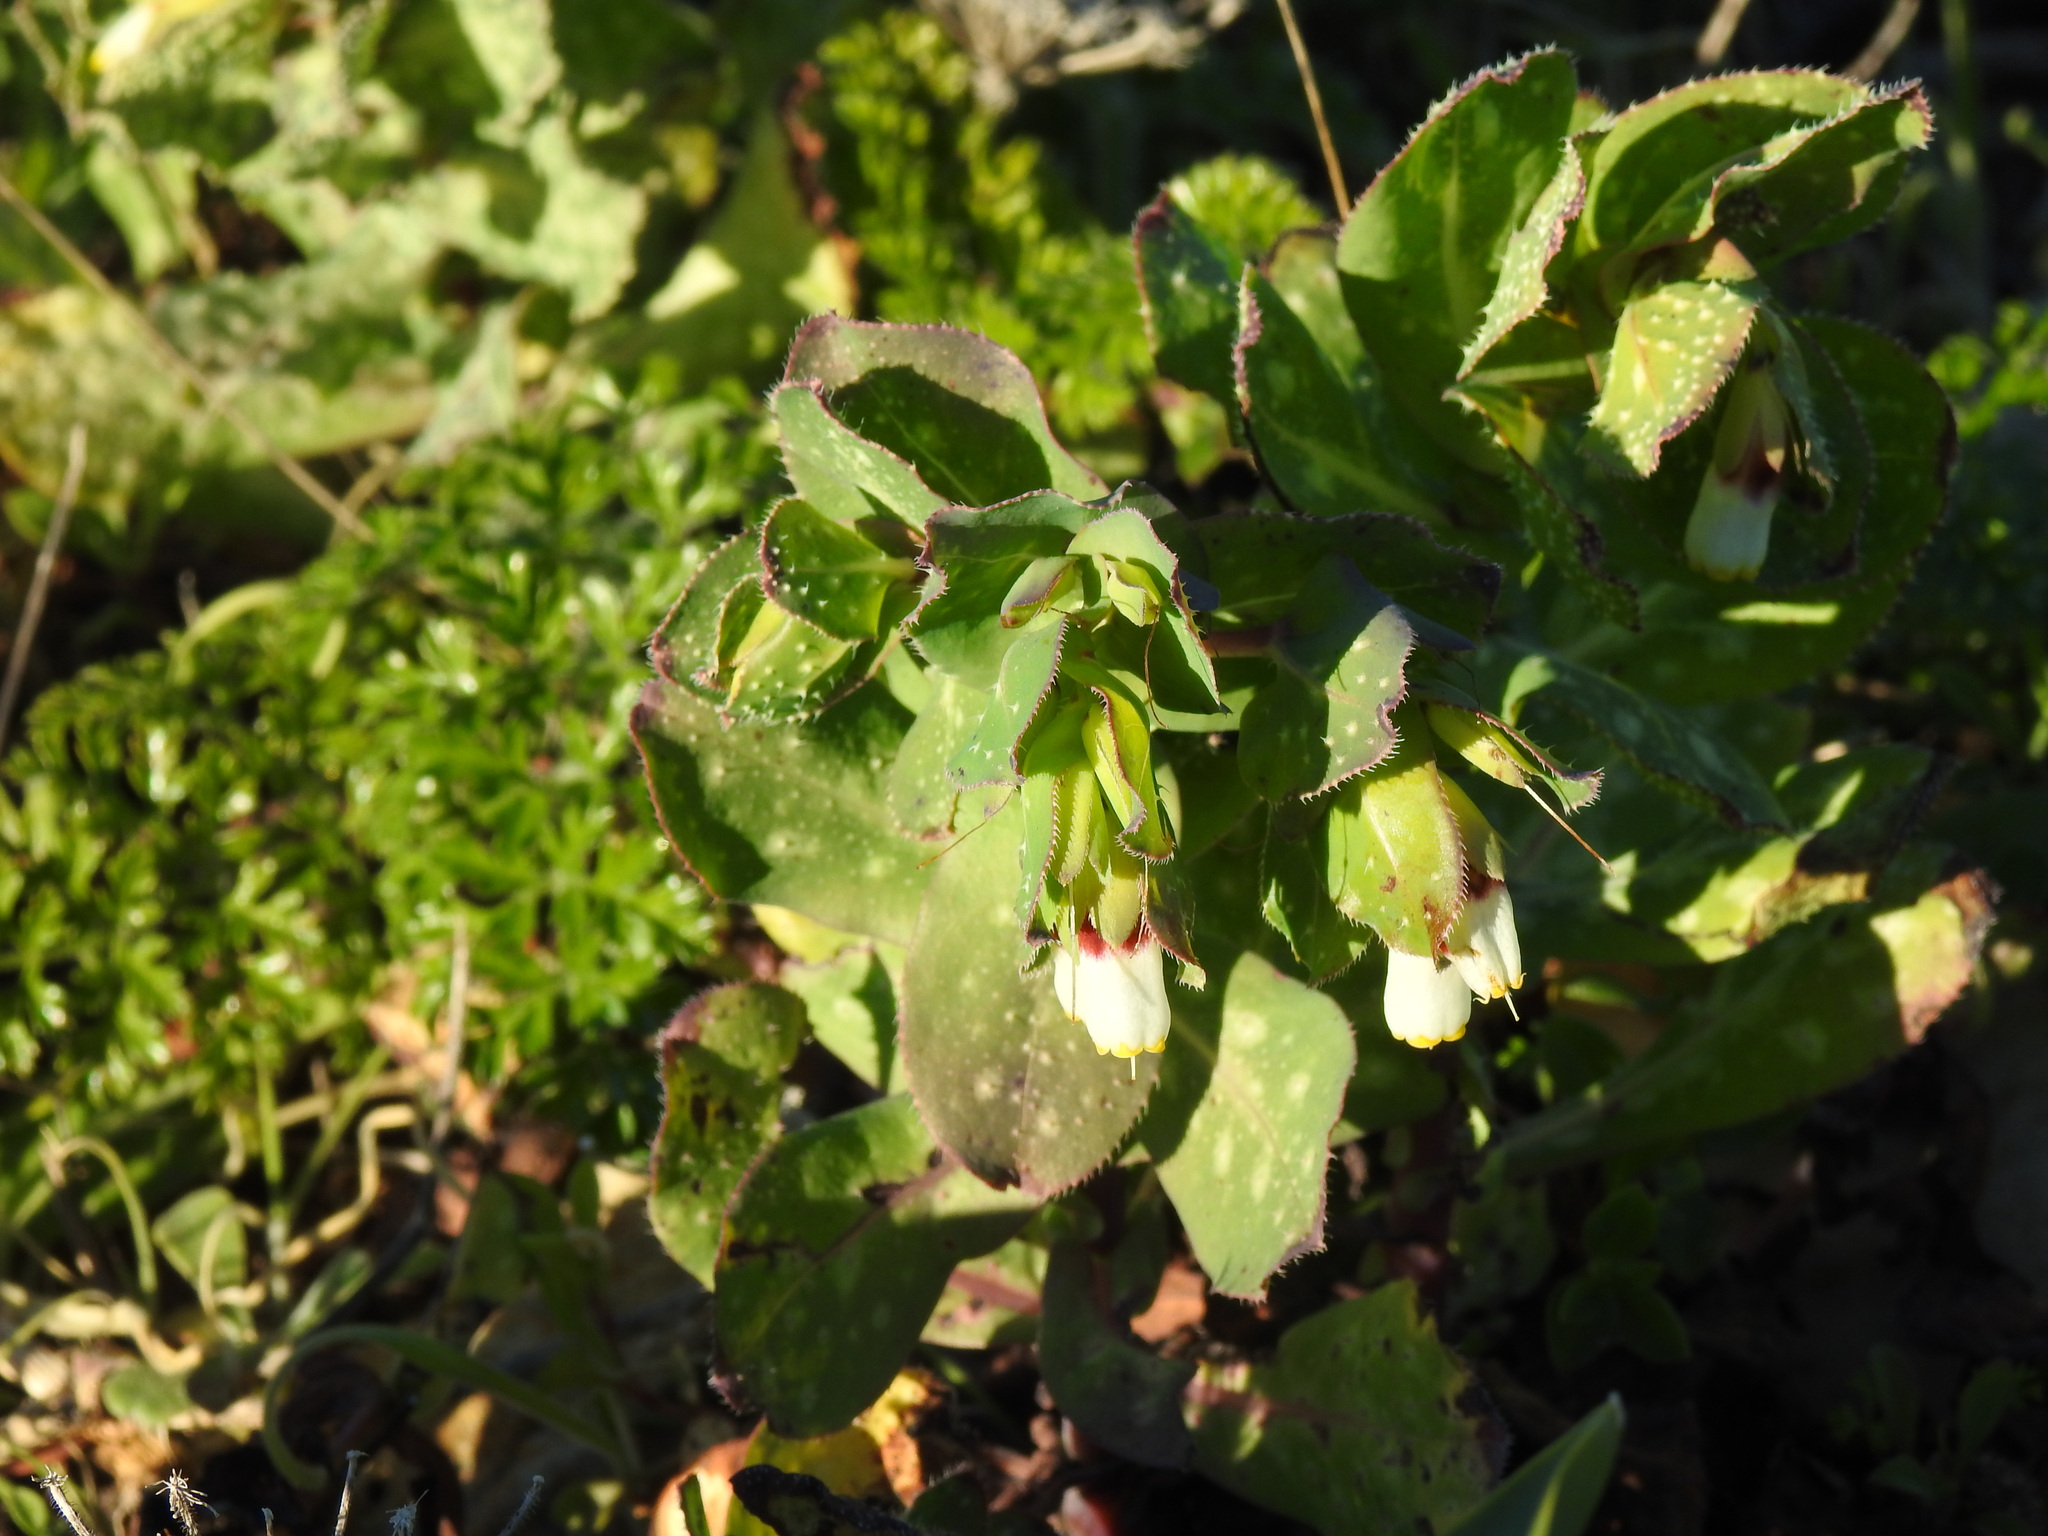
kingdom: Plantae
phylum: Tracheophyta
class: Magnoliopsida
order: Boraginales
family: Boraginaceae
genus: Cerinthe
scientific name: Cerinthe major
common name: Greater honeywort
